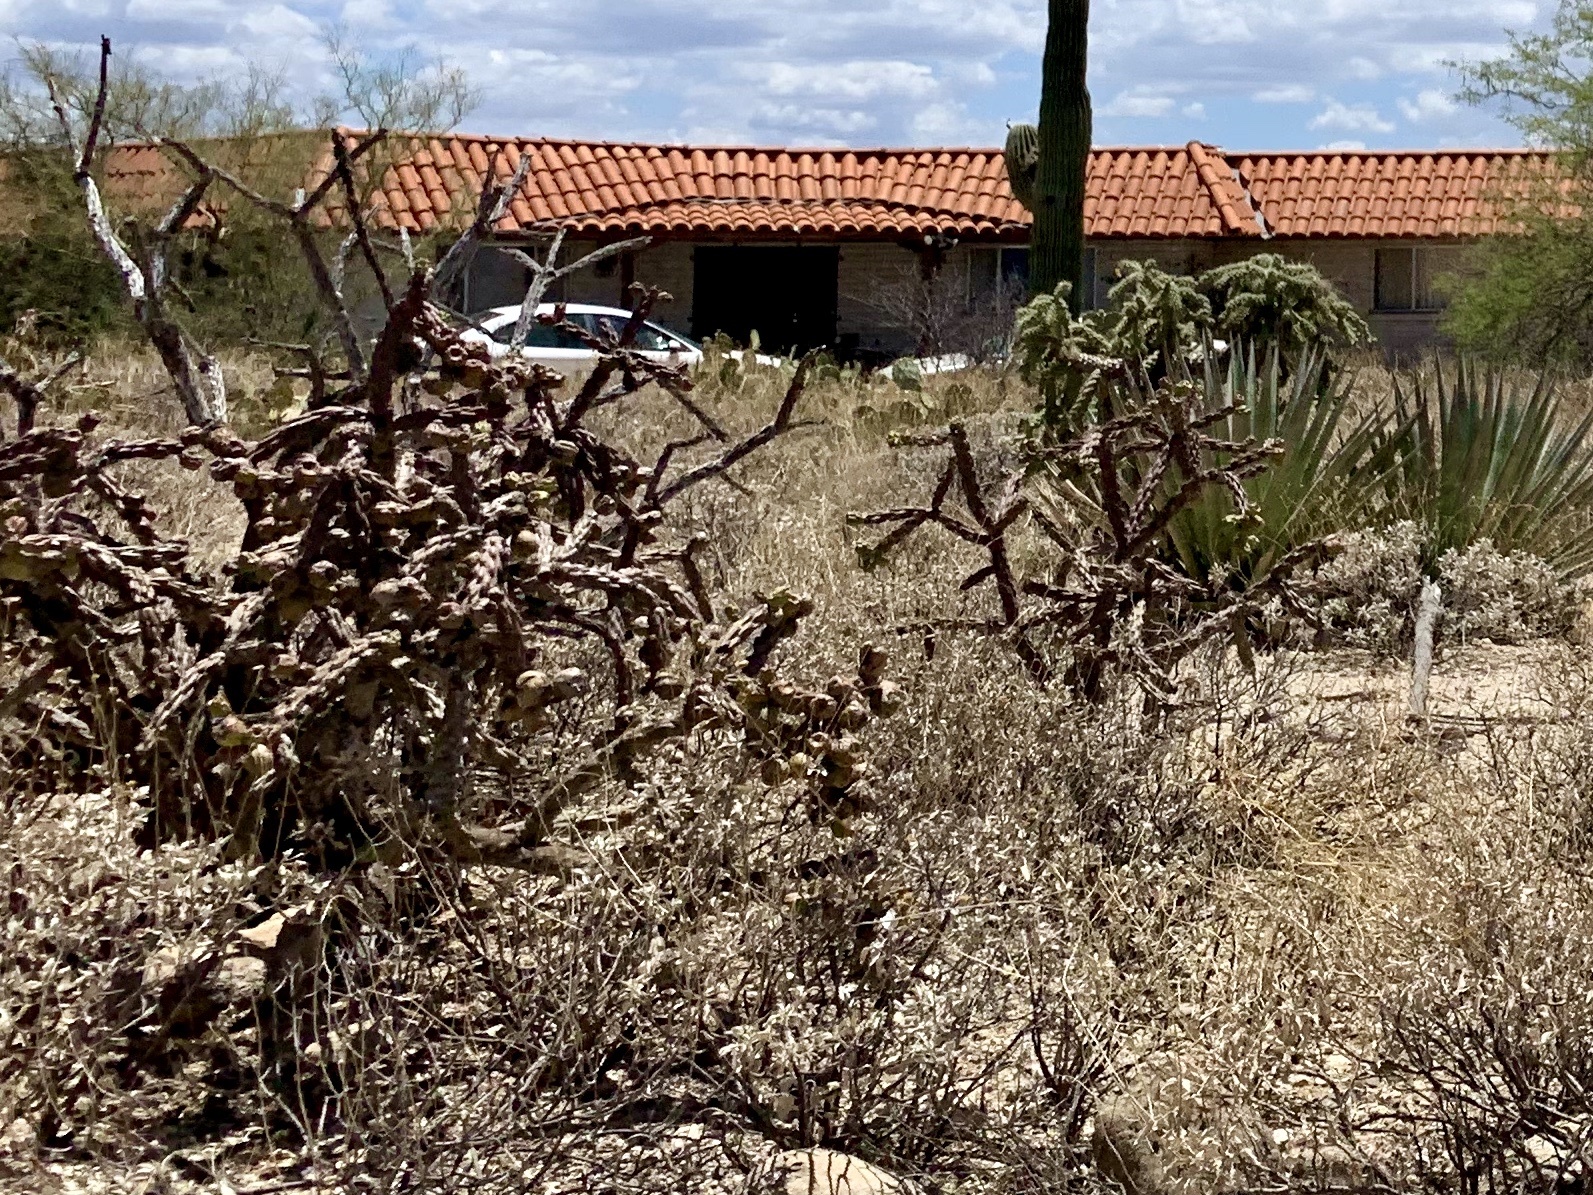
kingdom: Plantae
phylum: Tracheophyta
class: Magnoliopsida
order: Caryophyllales
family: Cactaceae
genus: Cylindropuntia
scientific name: Cylindropuntia acanthocarpa
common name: Buckhorn cholla
